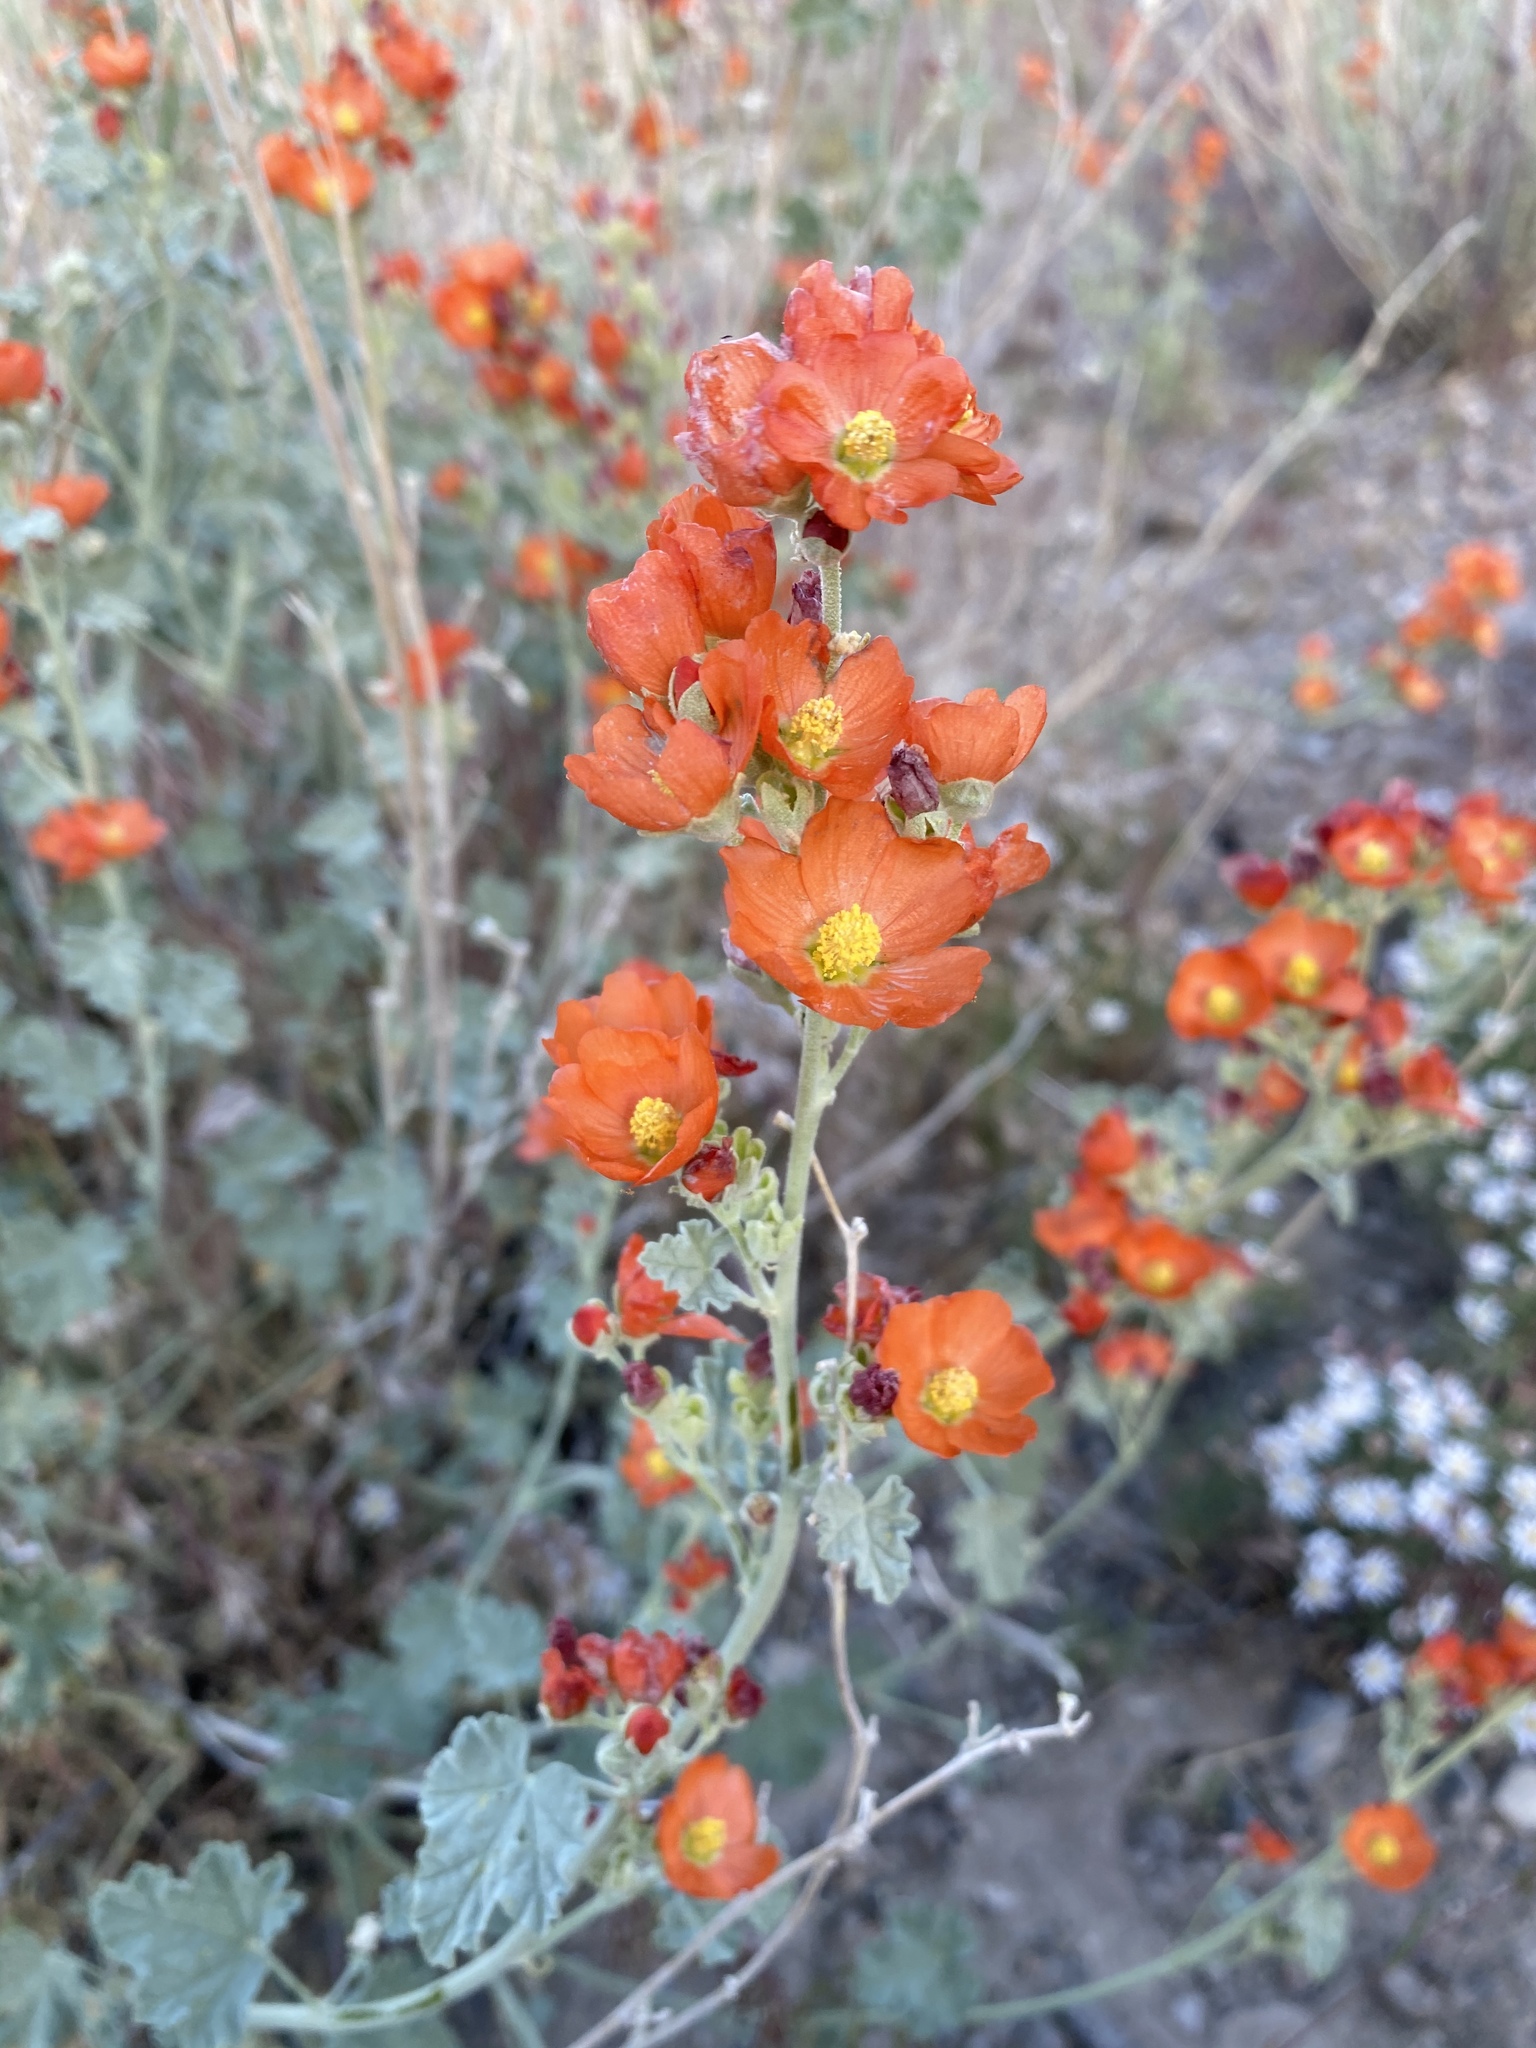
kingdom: Plantae
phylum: Tracheophyta
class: Magnoliopsida
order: Malvales
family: Malvaceae
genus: Sphaeralcea
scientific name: Sphaeralcea ambigua
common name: Apricot globe-mallow
